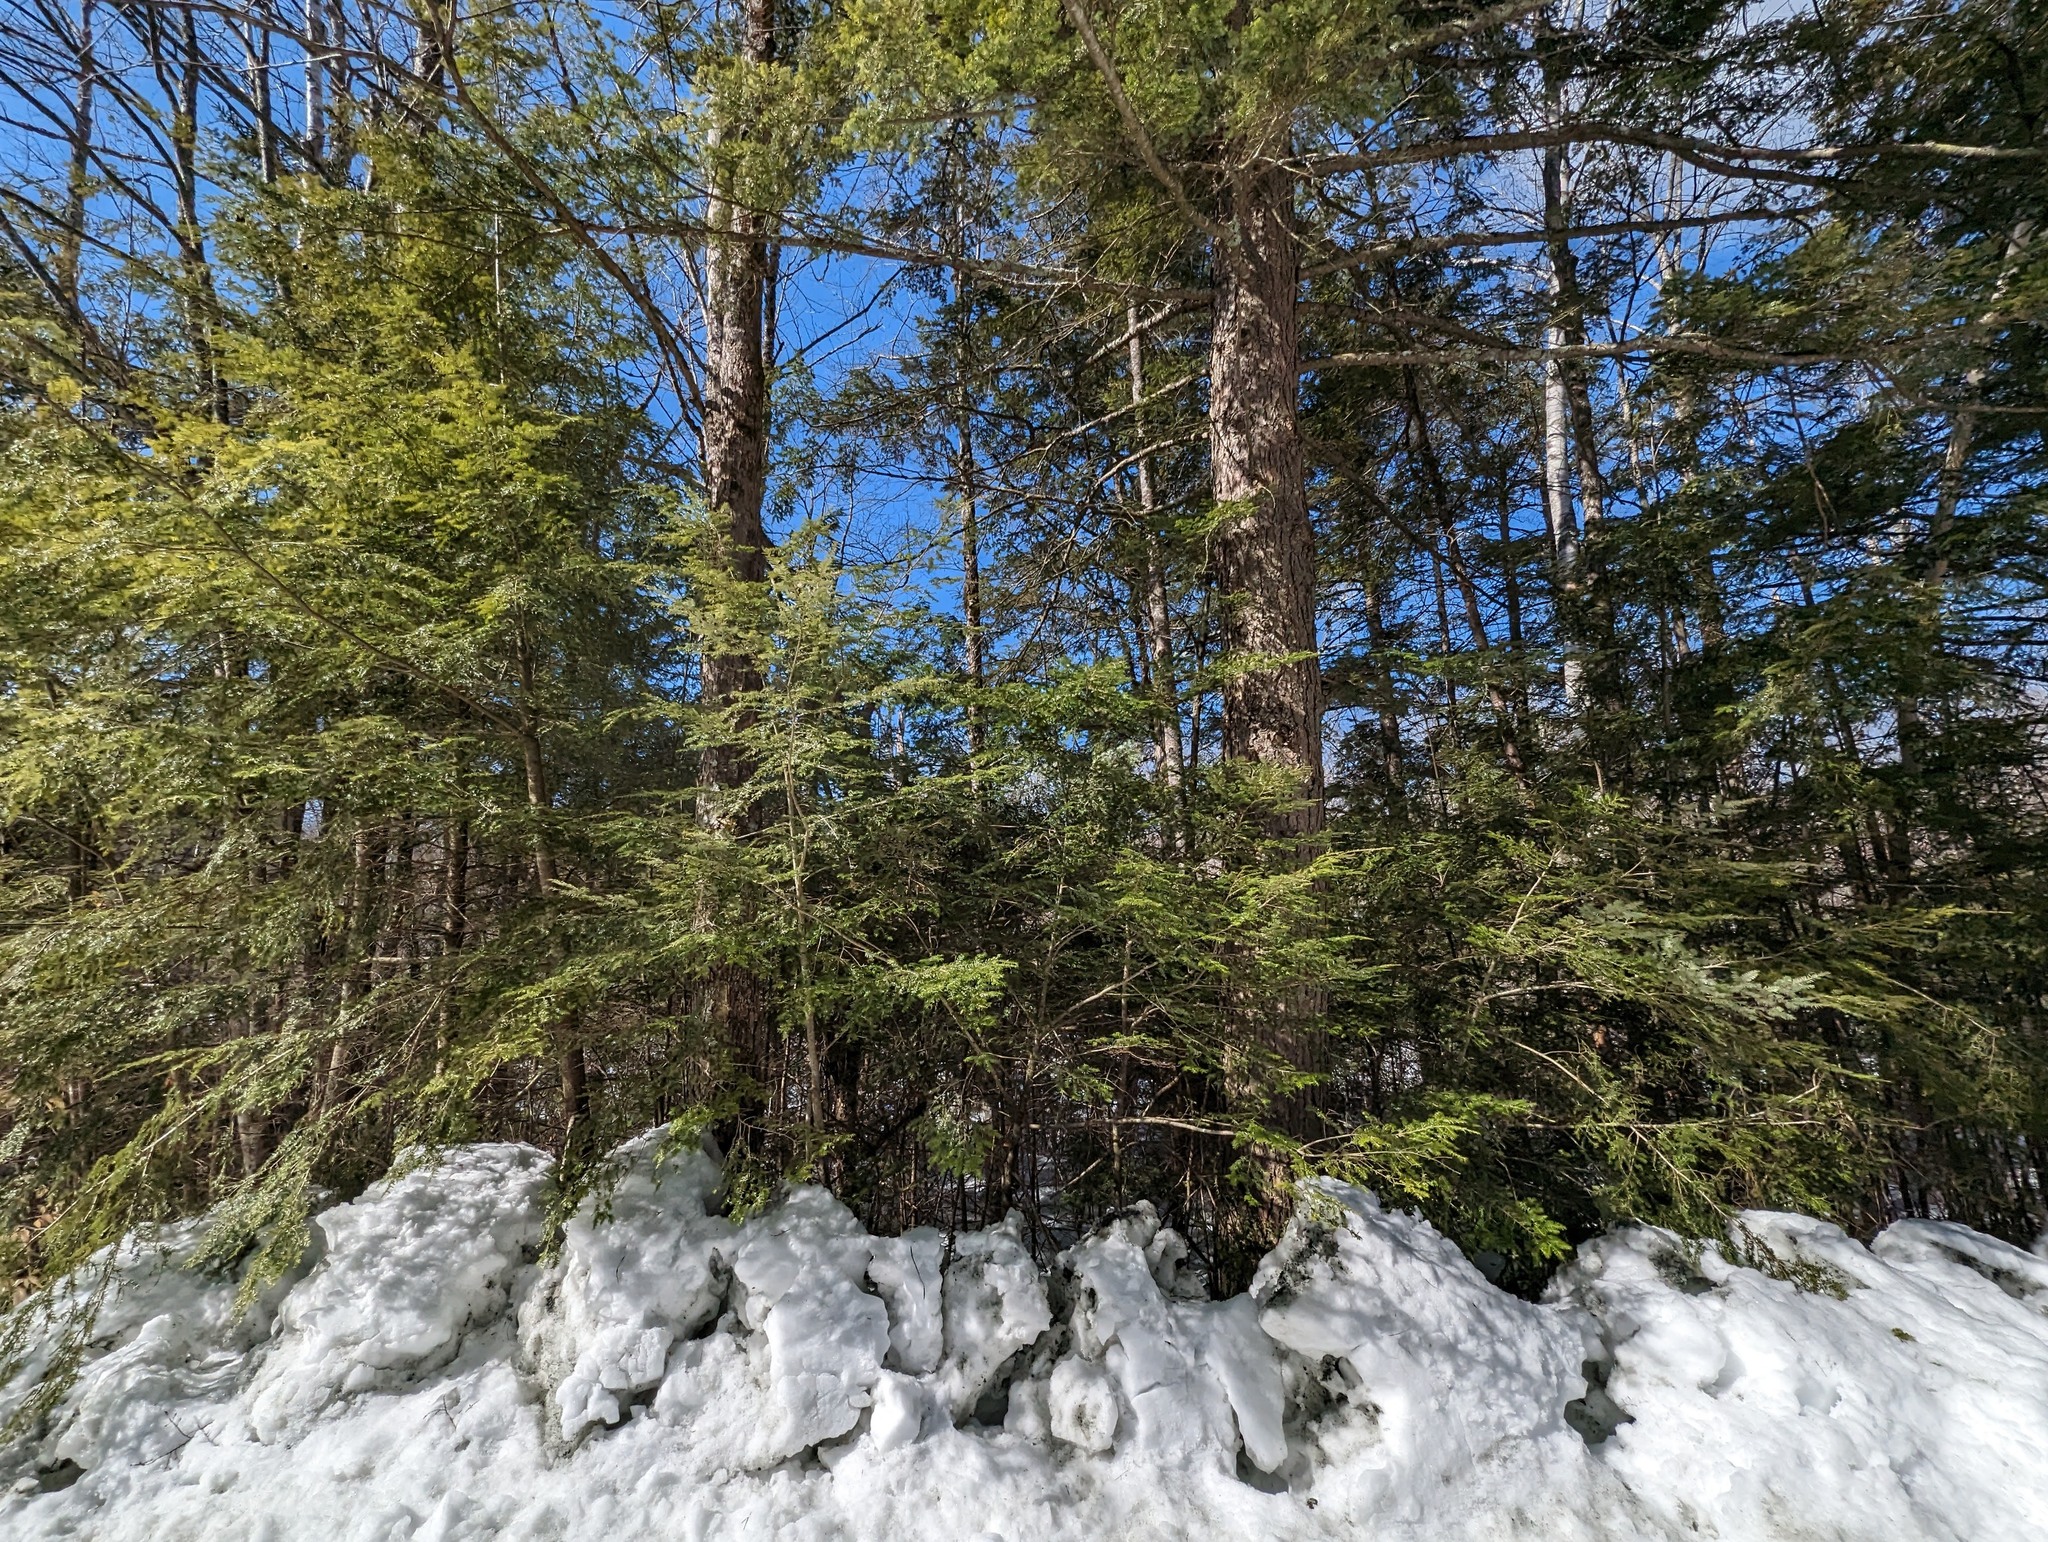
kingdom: Plantae
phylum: Tracheophyta
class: Pinopsida
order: Pinales
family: Pinaceae
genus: Tsuga
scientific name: Tsuga canadensis
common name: Eastern hemlock
